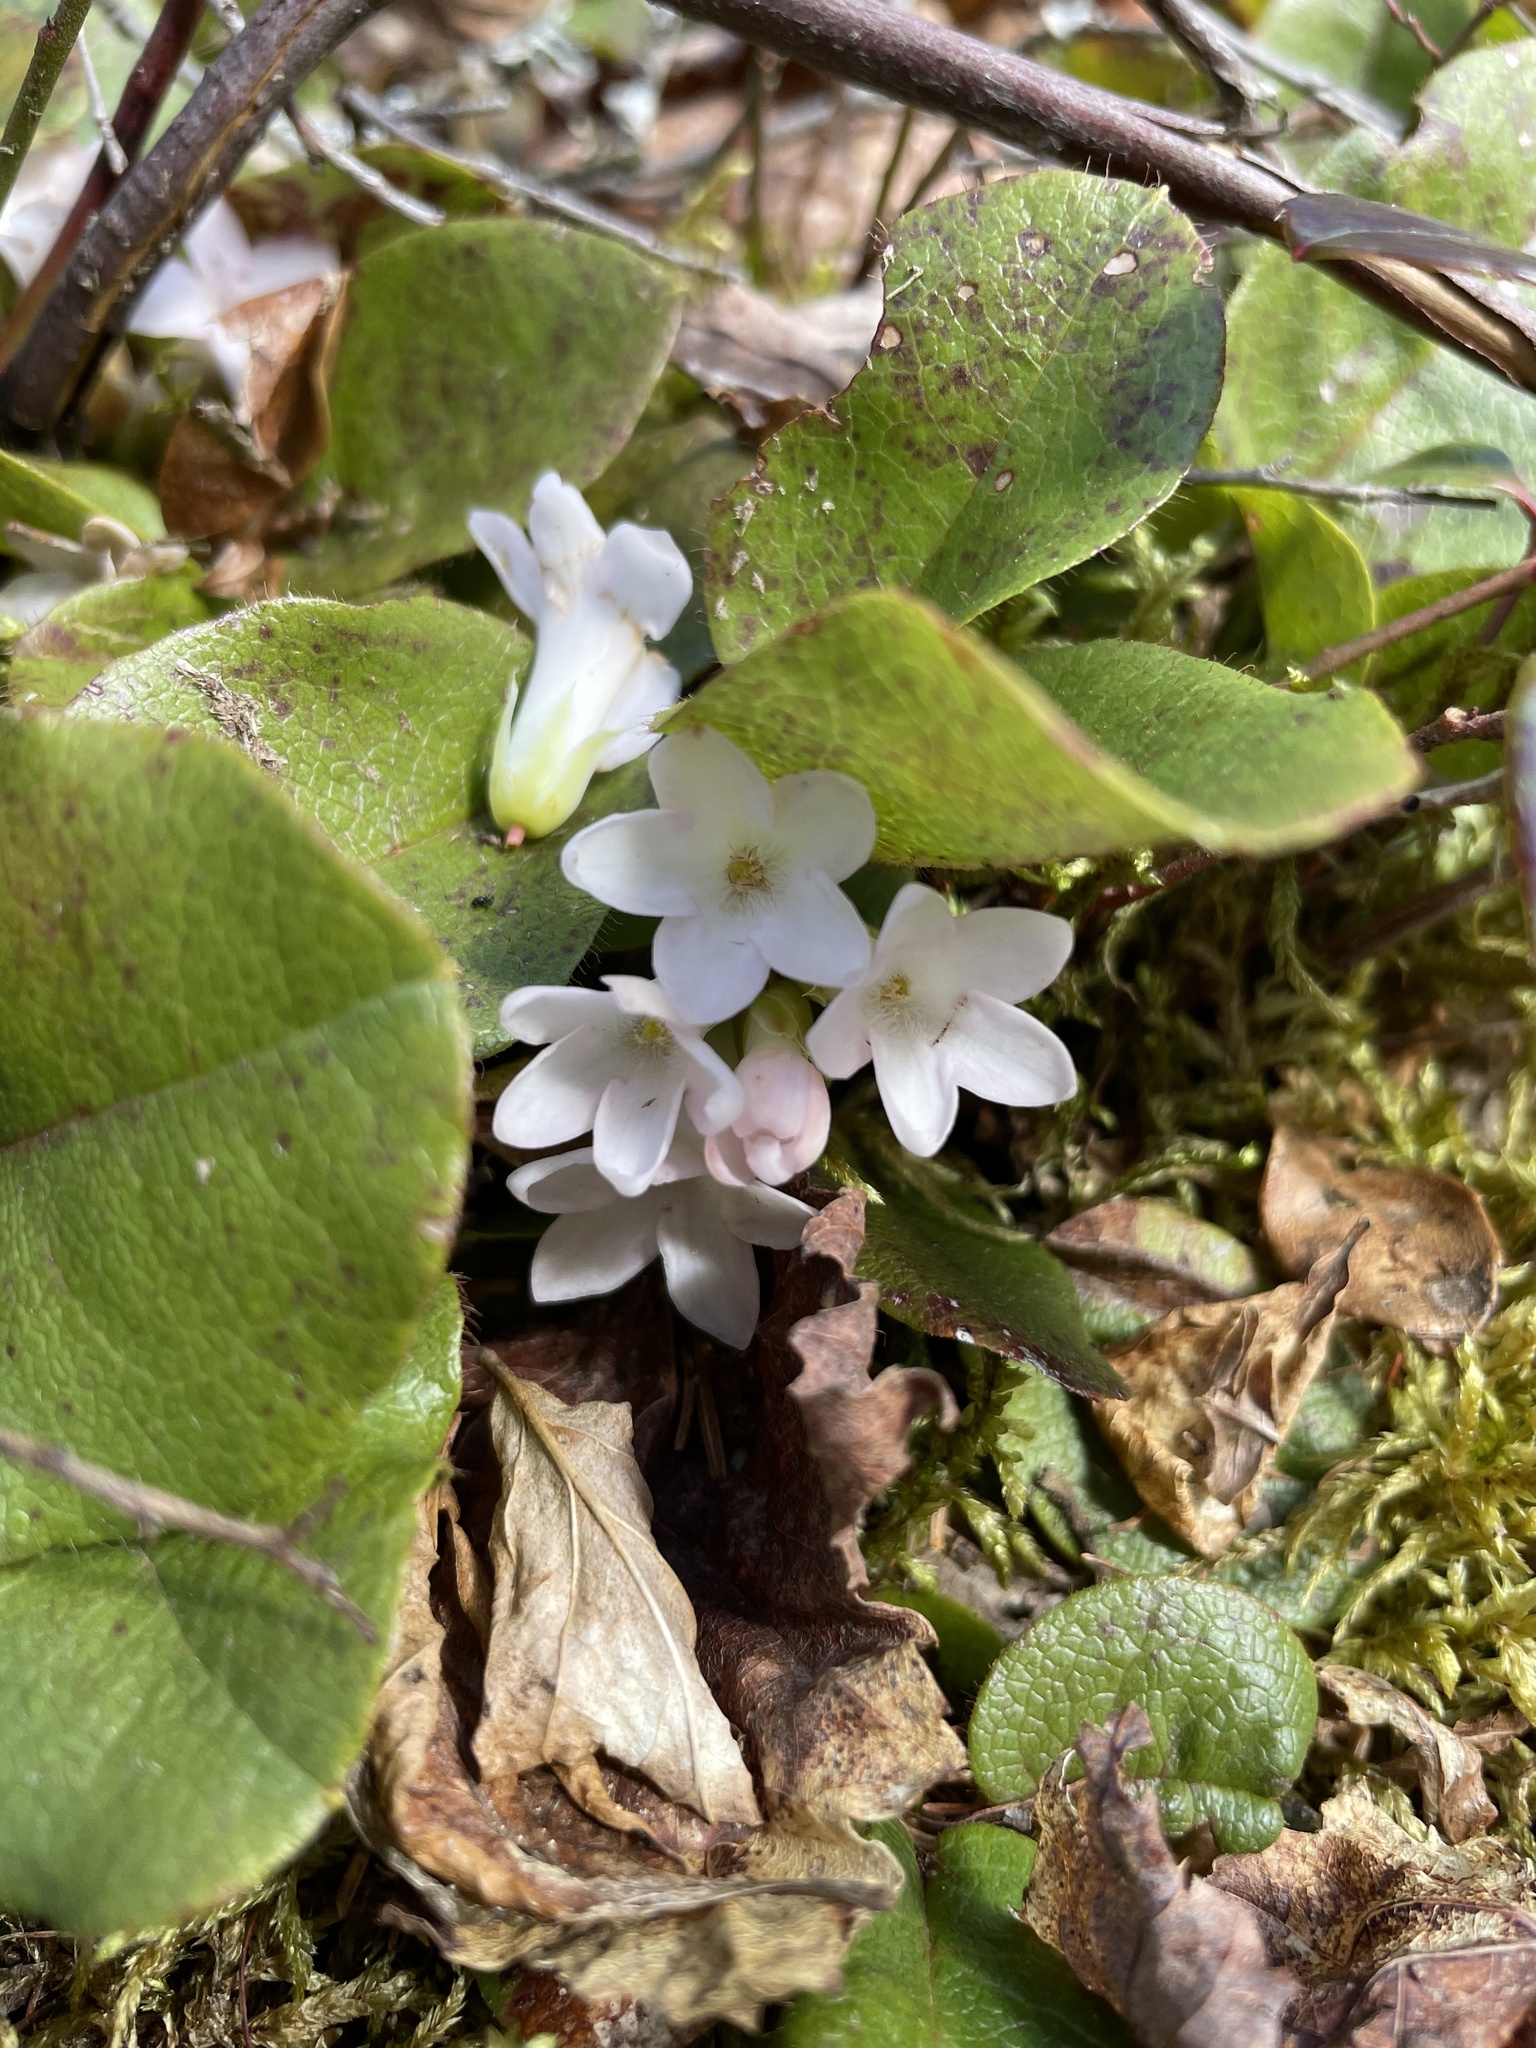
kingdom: Plantae
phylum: Tracheophyta
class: Magnoliopsida
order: Ericales
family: Ericaceae
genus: Epigaea
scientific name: Epigaea repens
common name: Gravelroot
